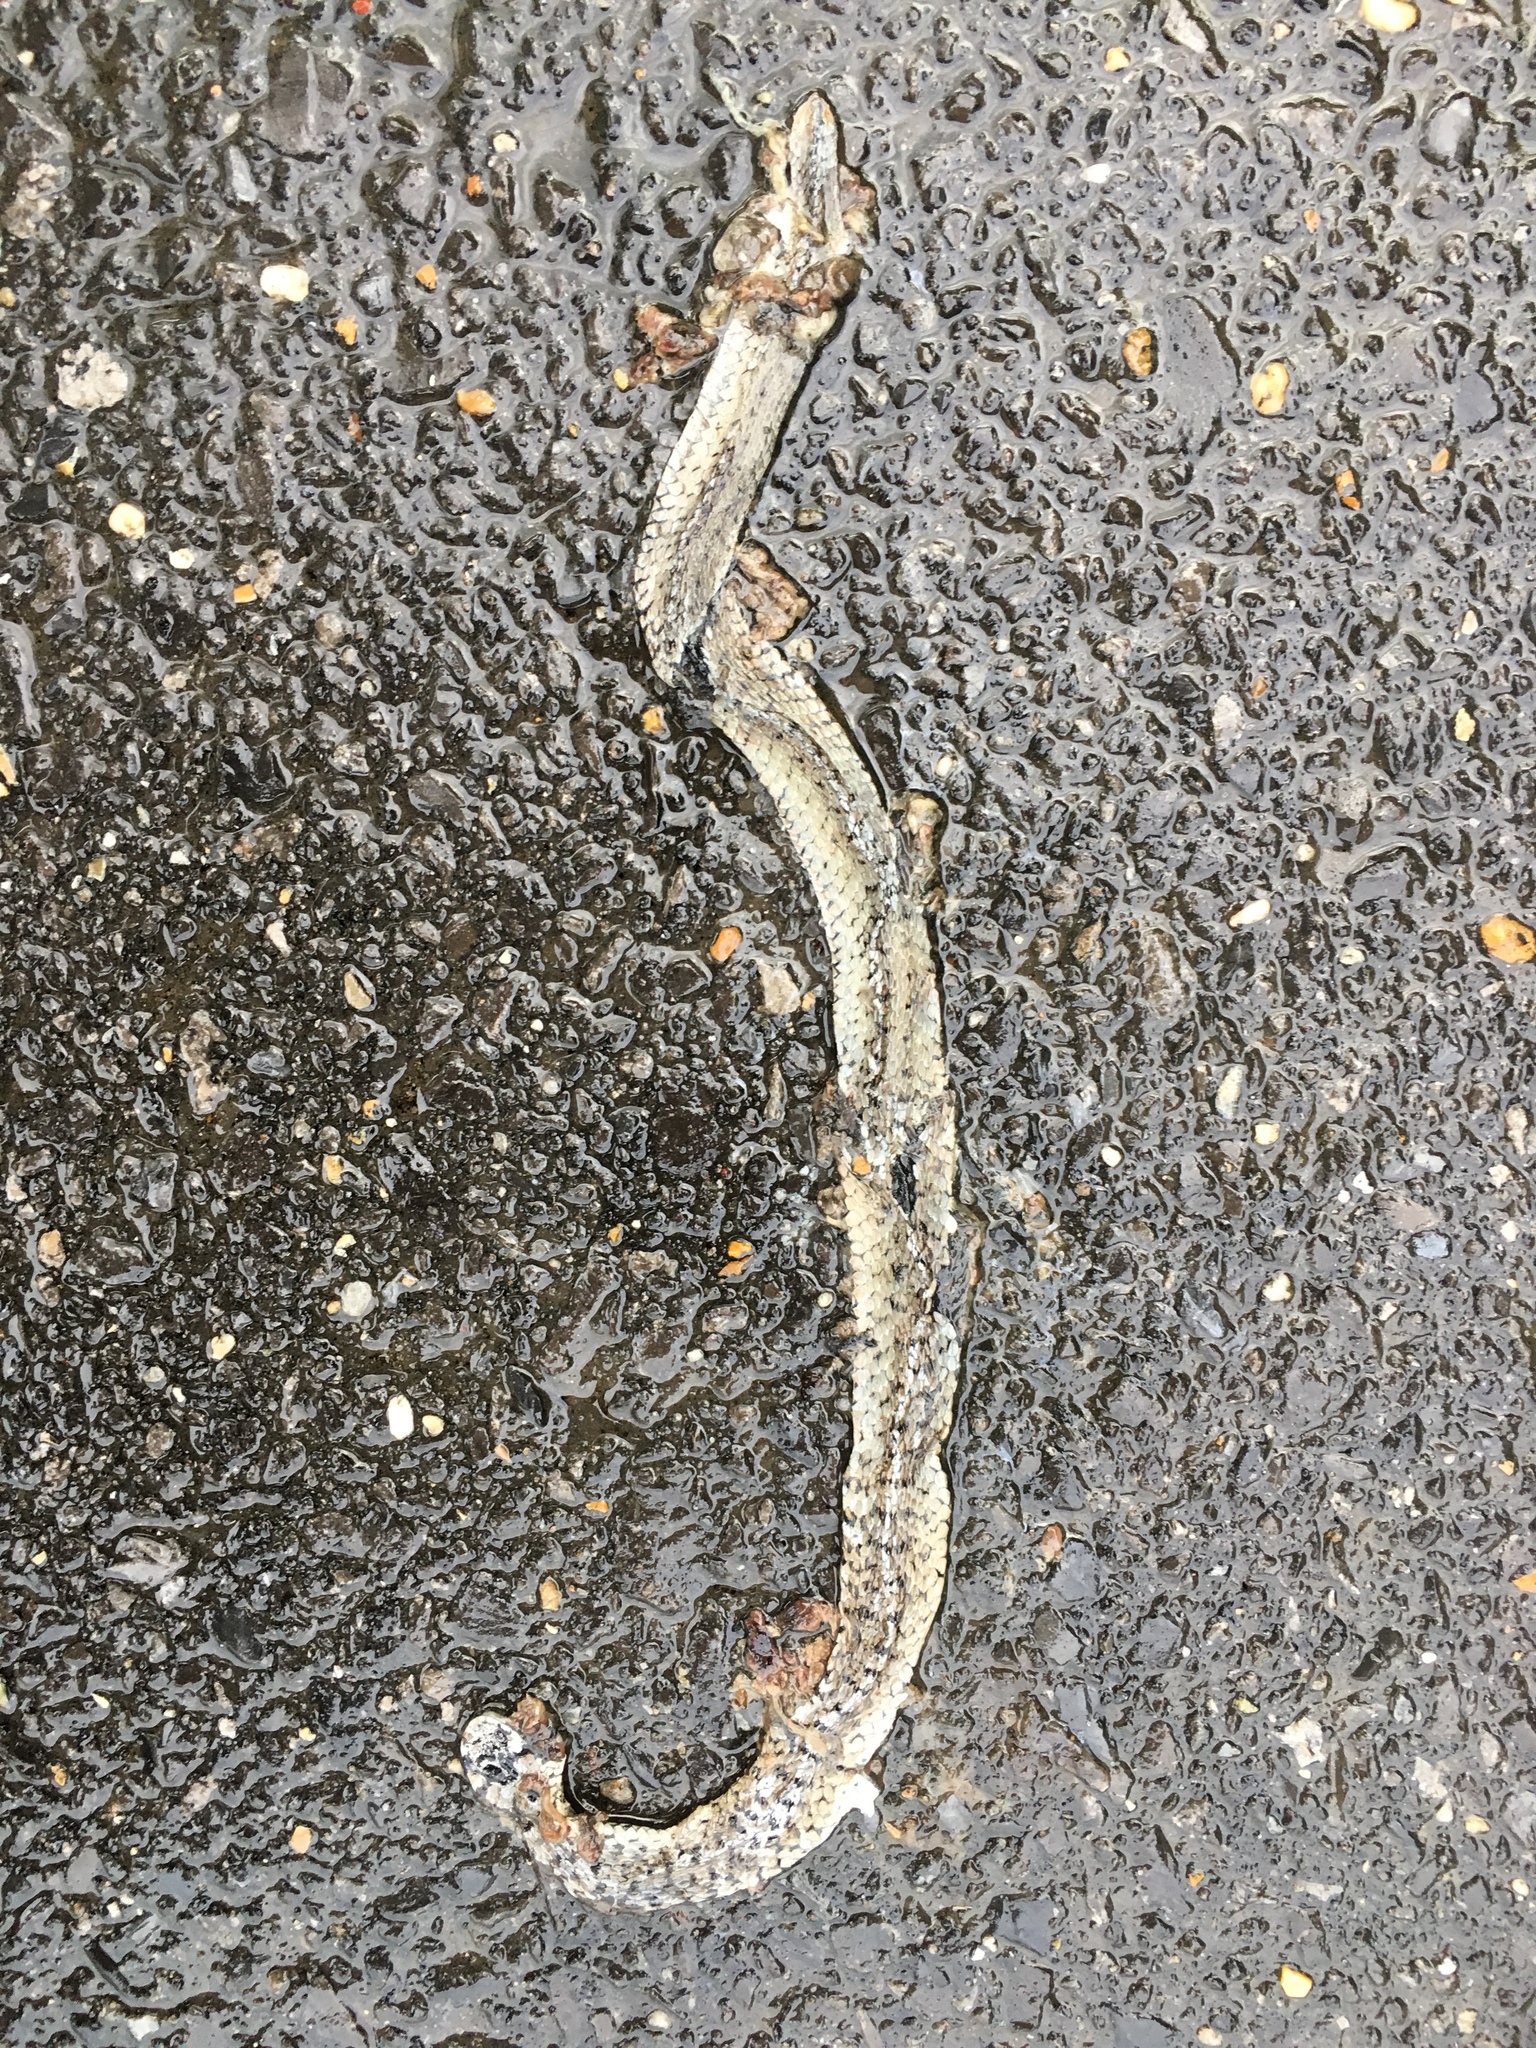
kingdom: Animalia
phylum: Chordata
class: Squamata
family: Colubridae
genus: Storeria
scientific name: Storeria dekayi
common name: (dekay’s) brown snake
